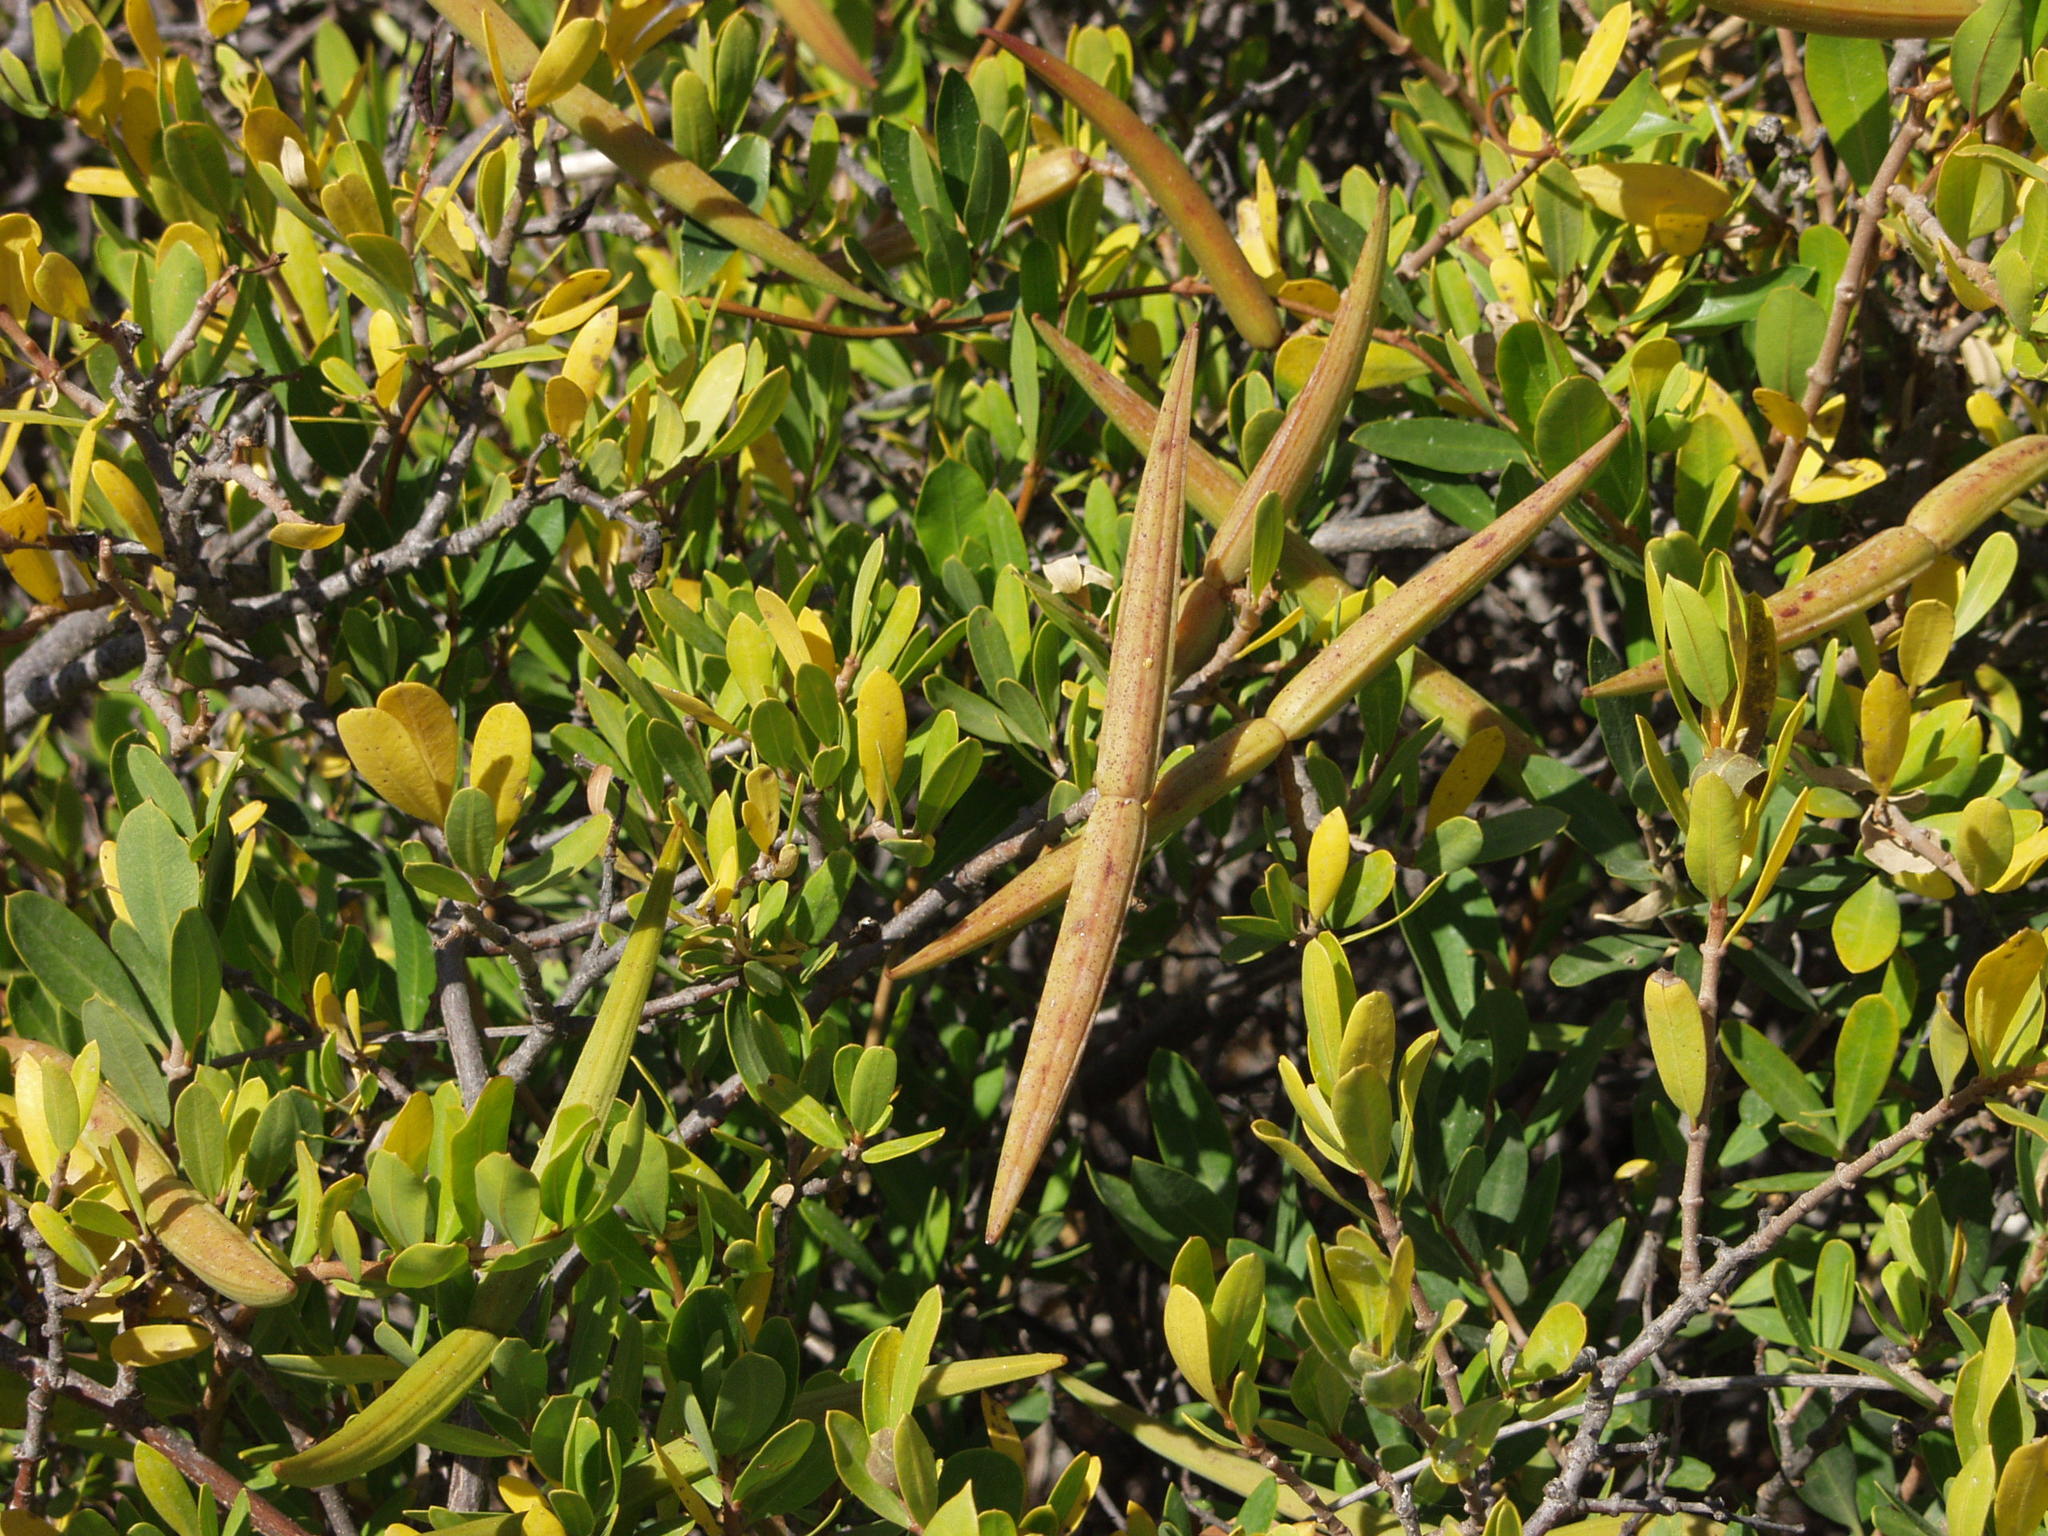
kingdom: Plantae
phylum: Tracheophyta
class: Magnoliopsida
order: Gentianales
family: Apocynaceae
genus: Periploca
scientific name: Periploca laevigata
